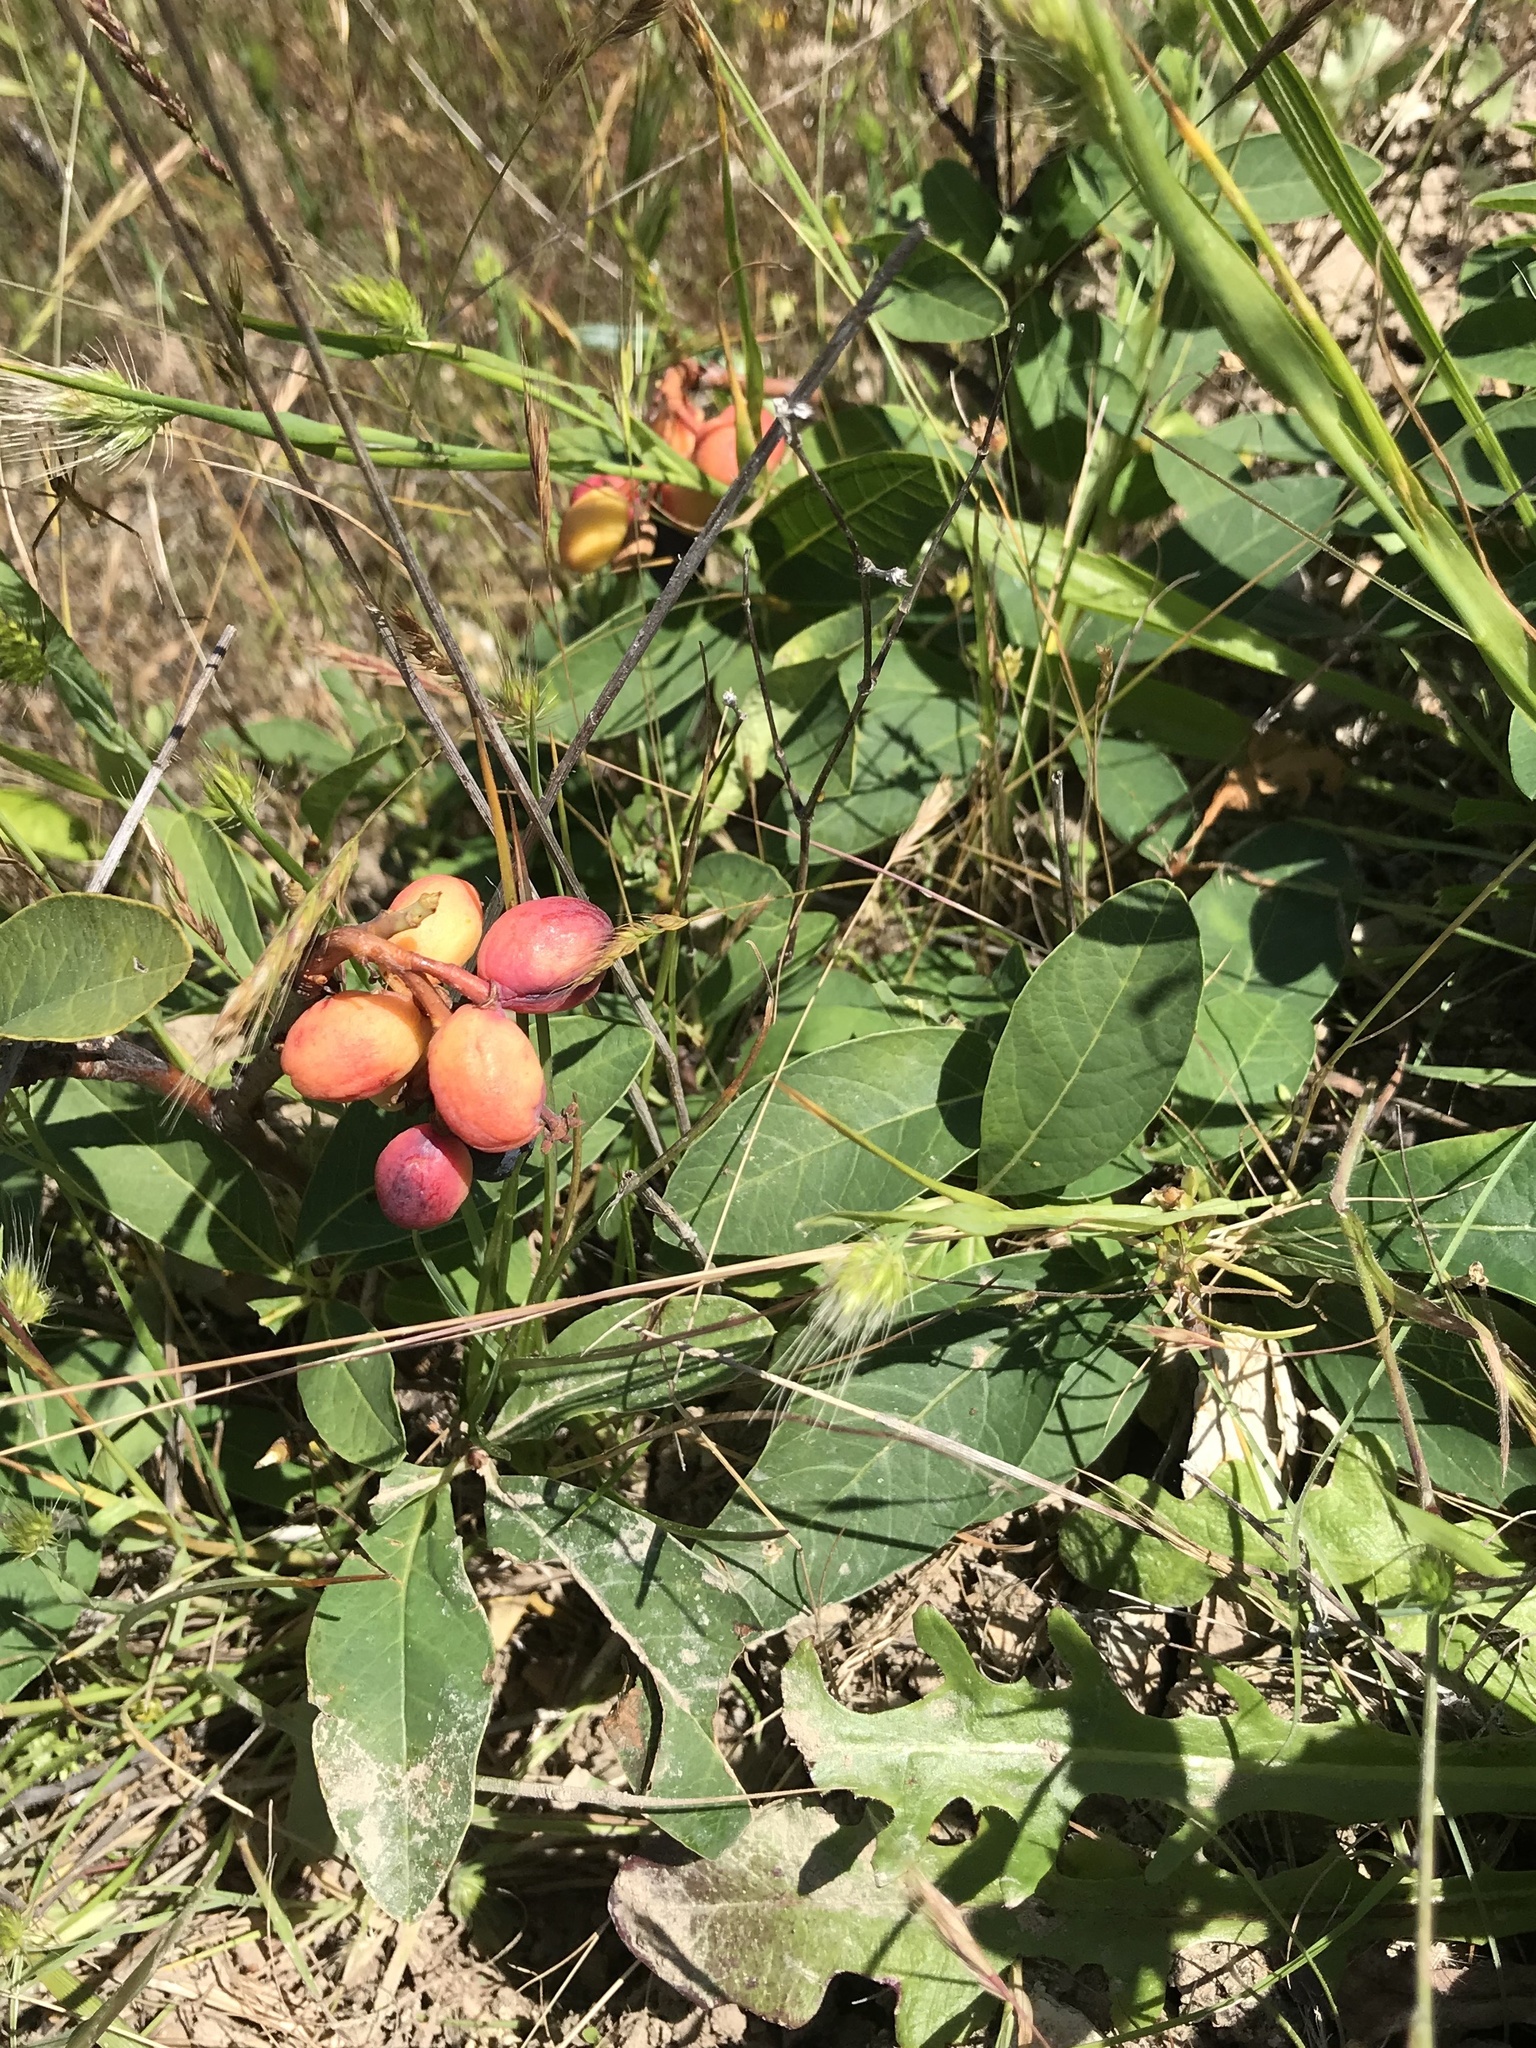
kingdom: Plantae
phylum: Tracheophyta
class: Magnoliopsida
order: Rosales
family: Rosaceae
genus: Oemleria
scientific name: Oemleria cerasiformis
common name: Osoberry
